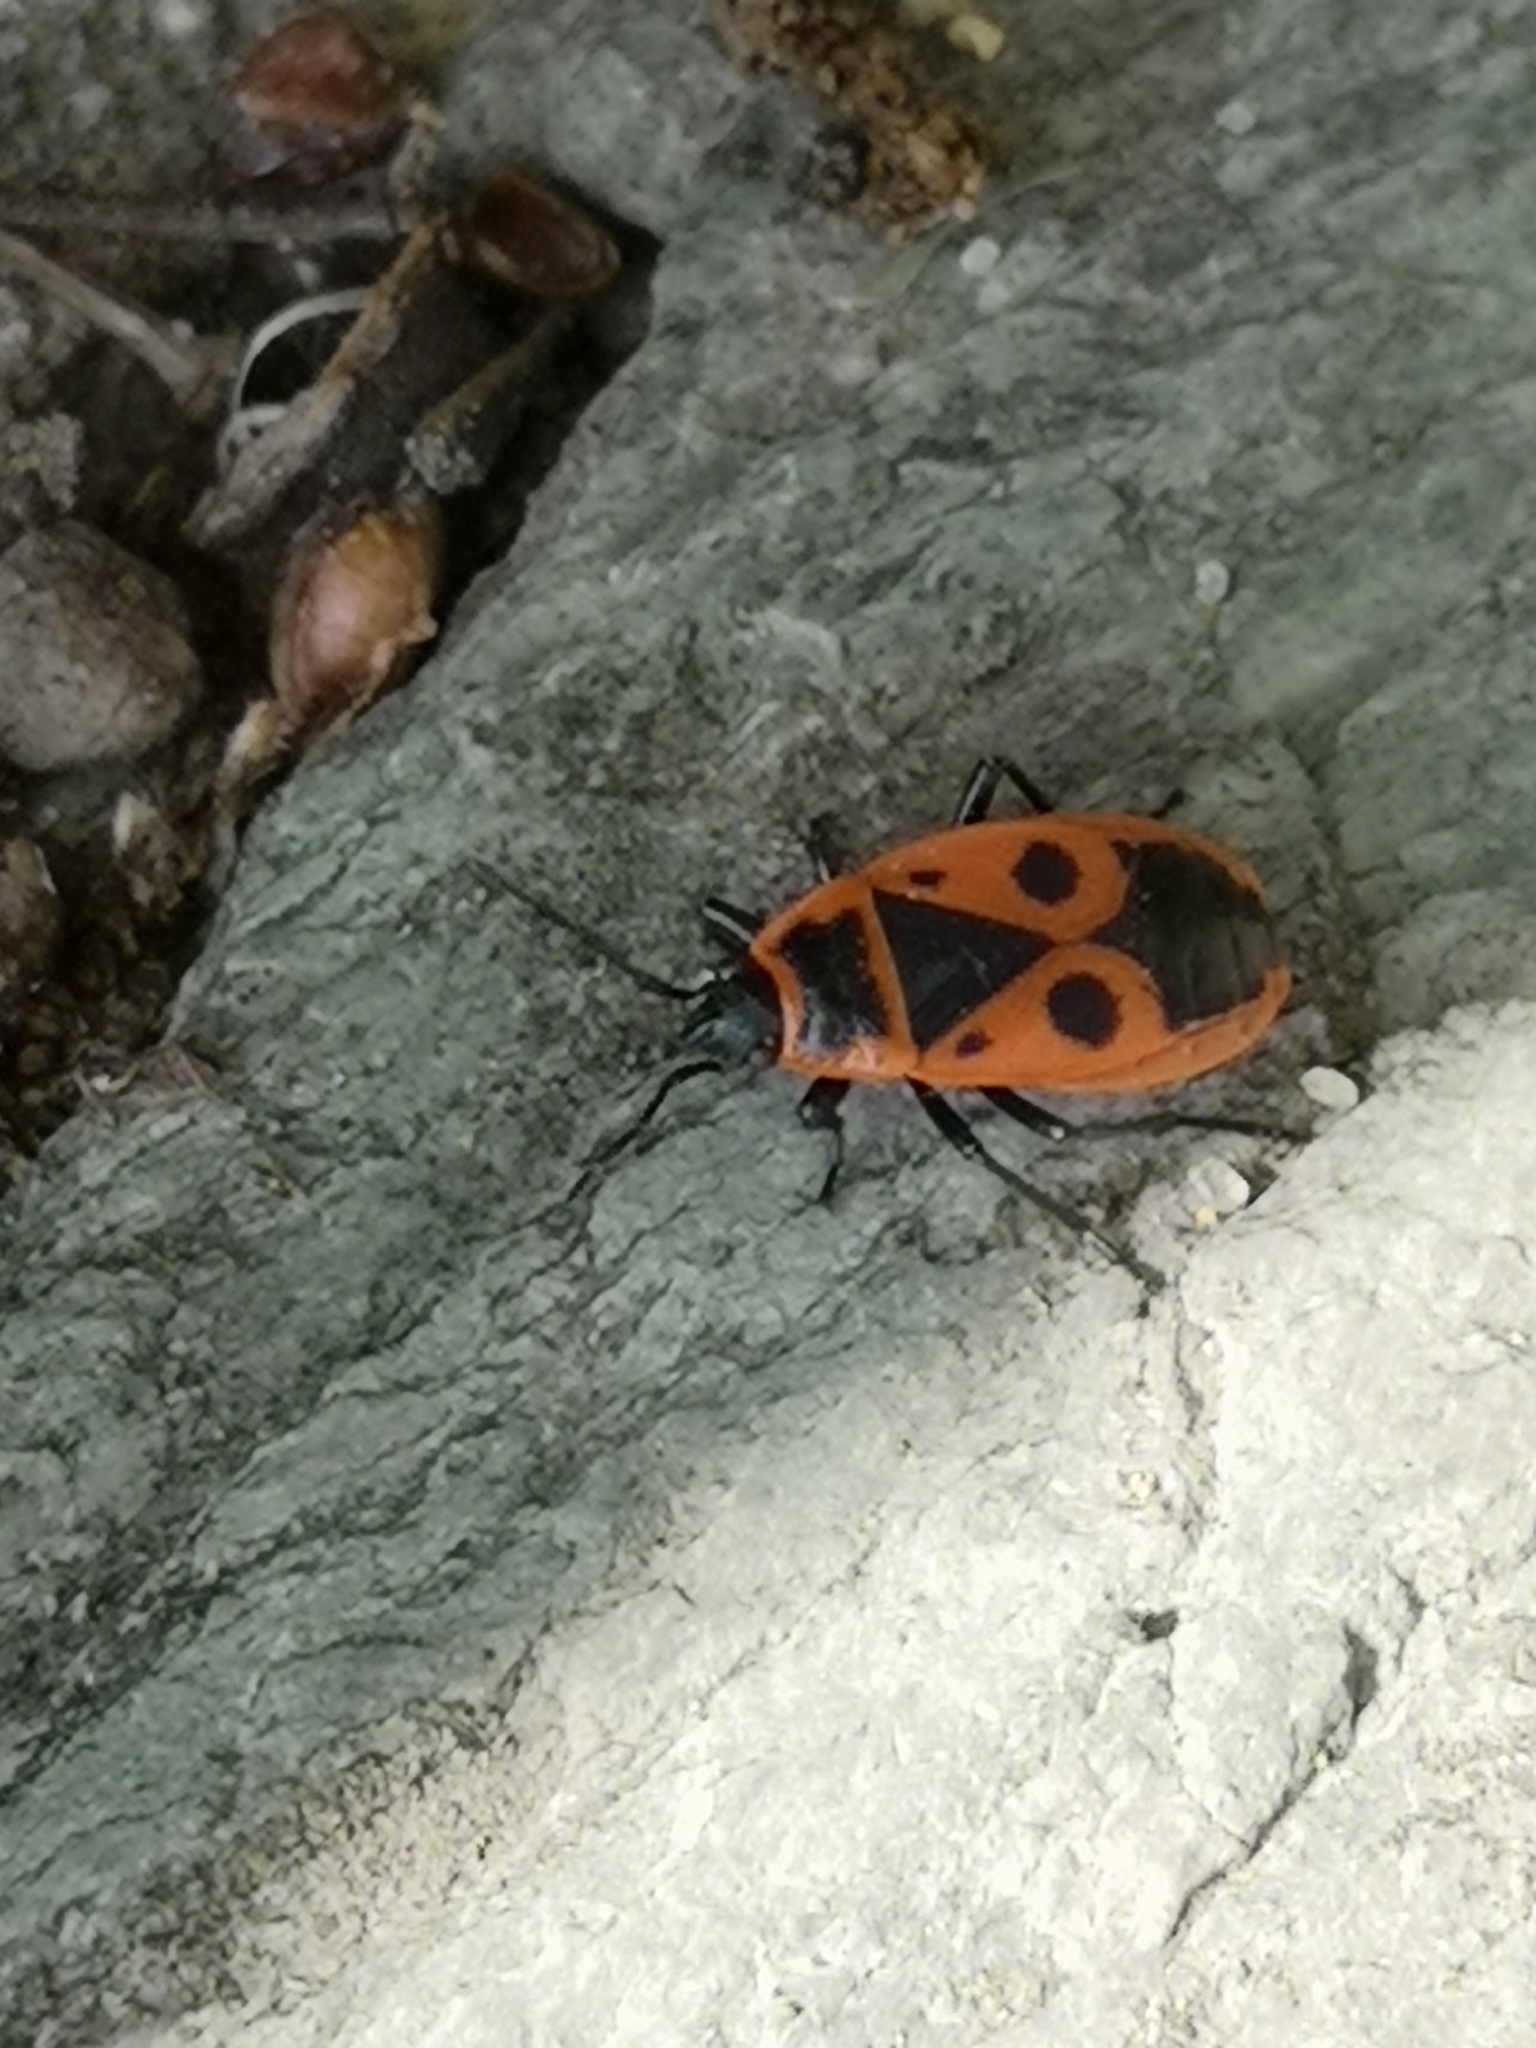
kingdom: Animalia
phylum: Arthropoda
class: Insecta
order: Hemiptera
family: Pyrrhocoridae
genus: Pyrrhocoris
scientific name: Pyrrhocoris apterus
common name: Firebug
